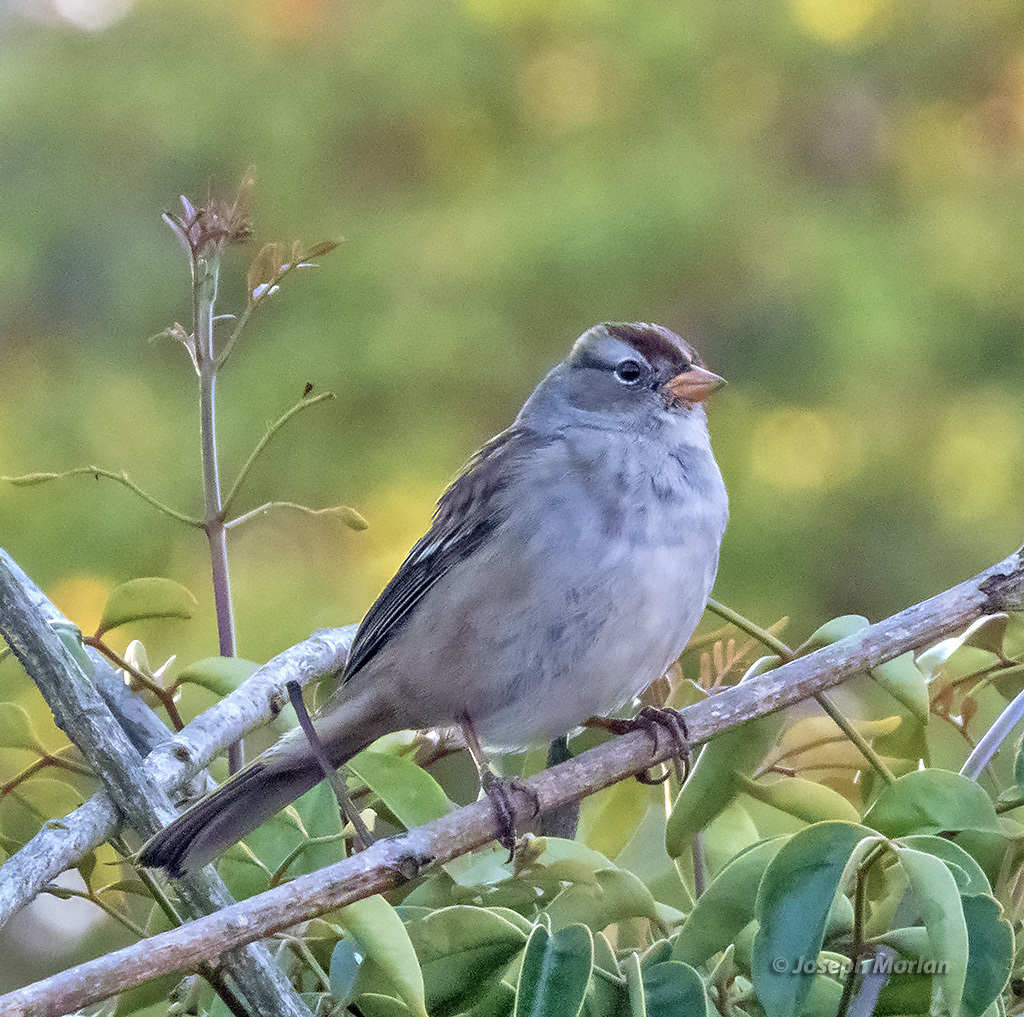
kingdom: Animalia
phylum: Chordata
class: Aves
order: Passeriformes
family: Passerellidae
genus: Zonotrichia
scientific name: Zonotrichia leucophrys
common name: White-crowned sparrow
